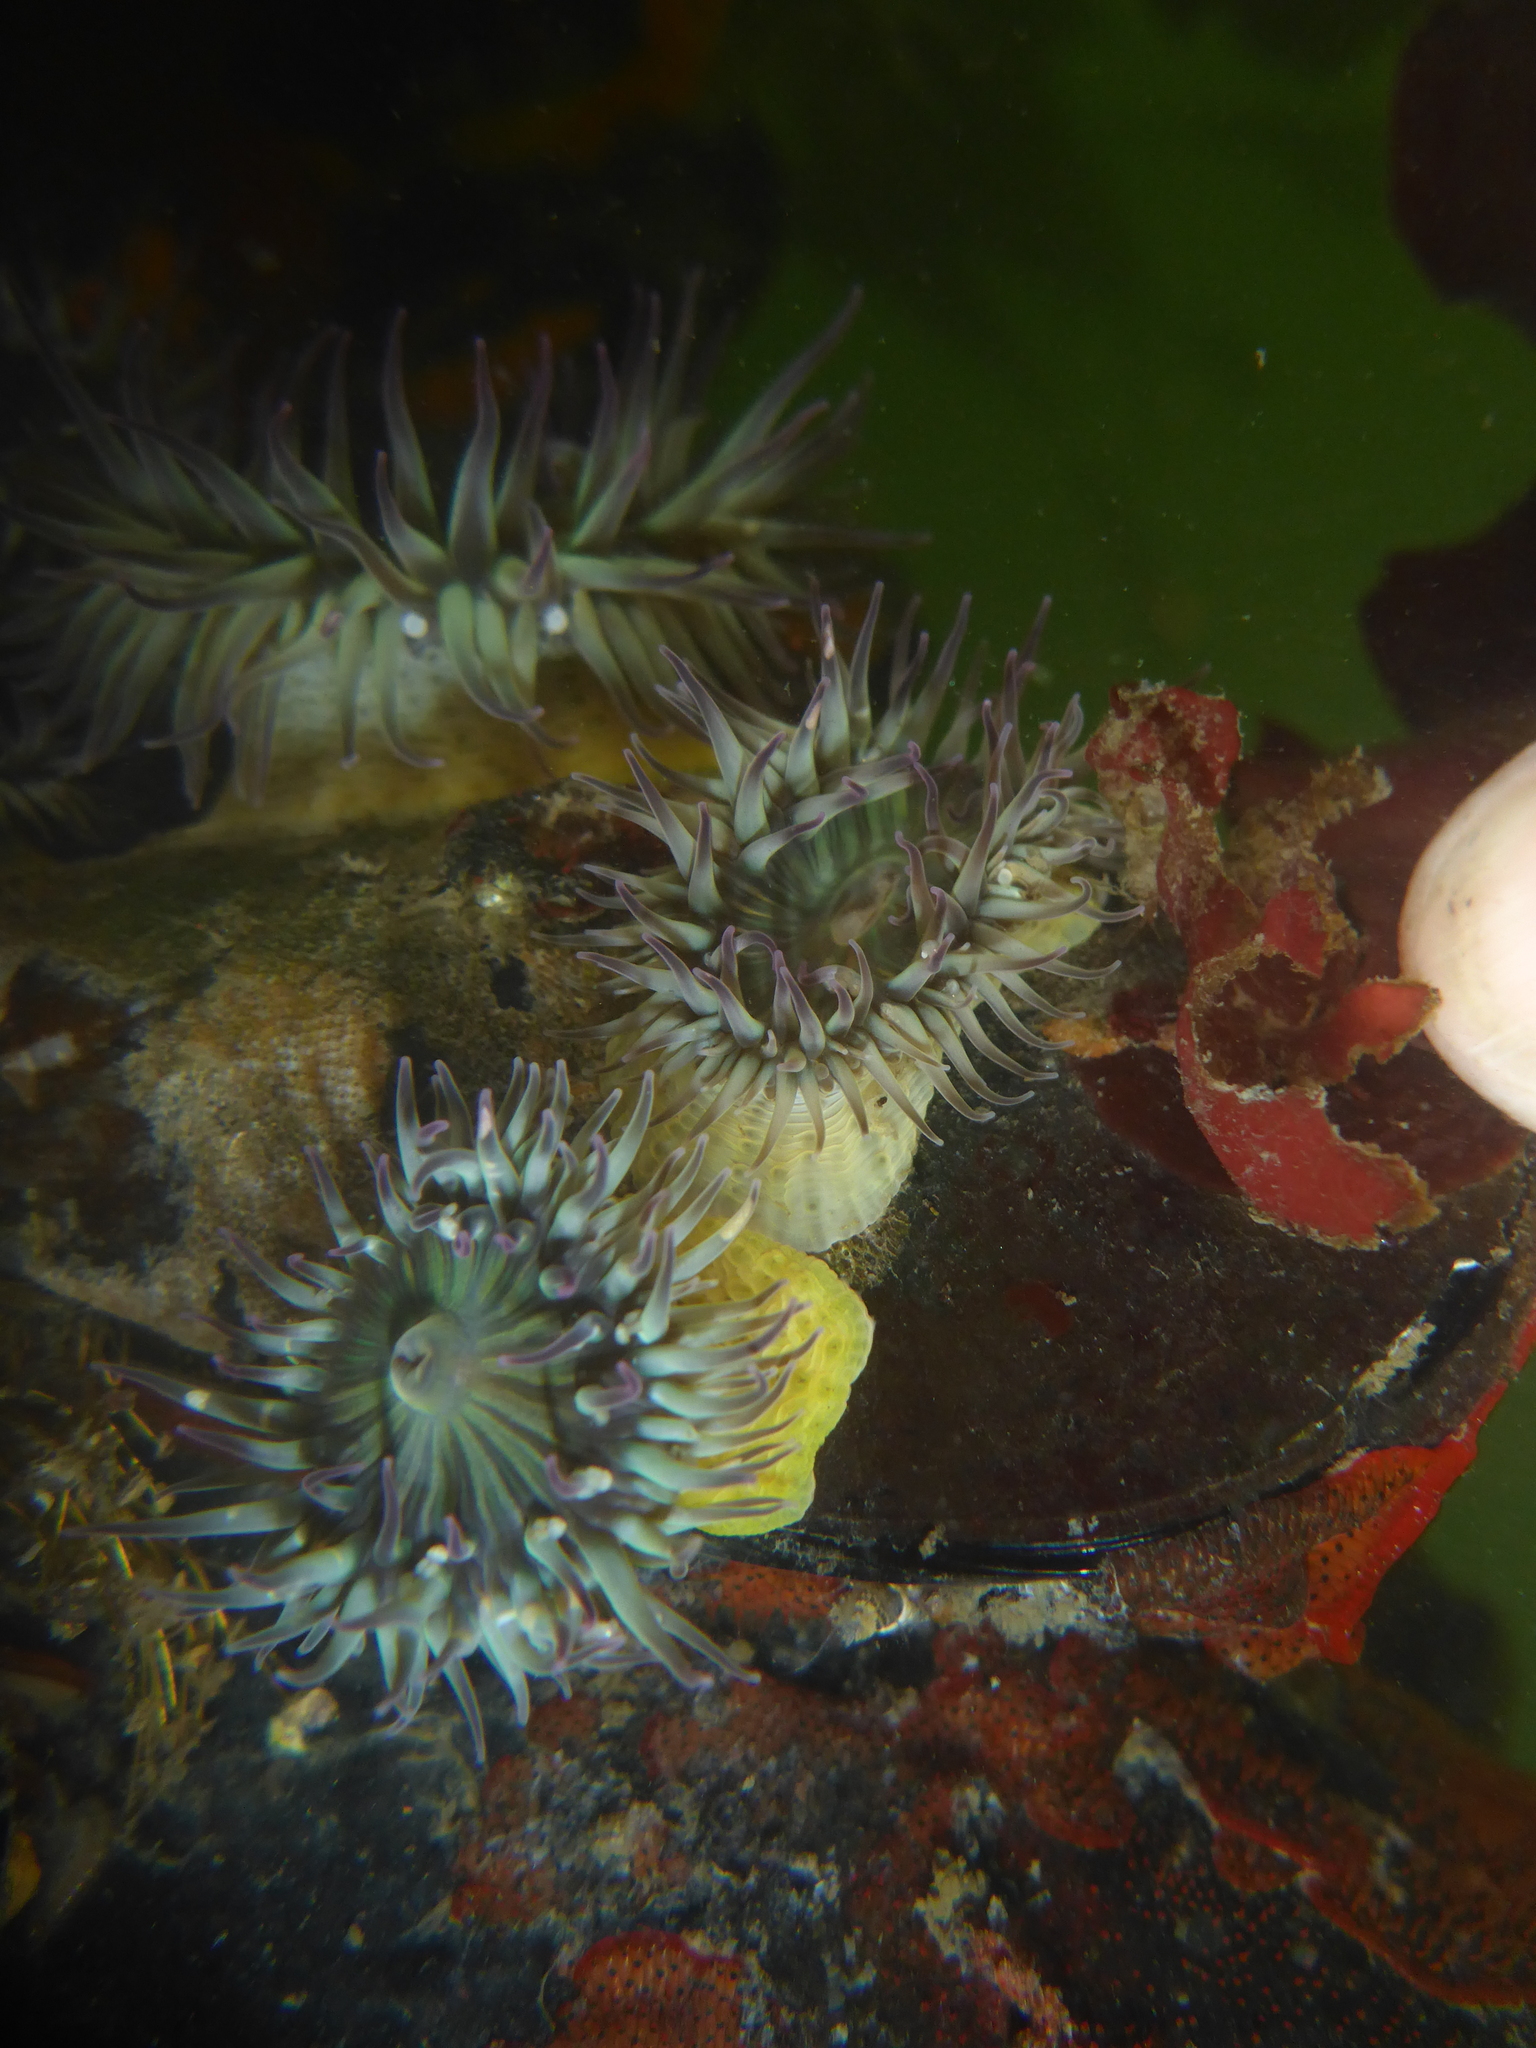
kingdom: Animalia
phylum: Cnidaria
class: Anthozoa
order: Actiniaria
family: Actiniidae
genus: Anthopleura
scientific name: Anthopleura elegantissima
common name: Clonal anemone
